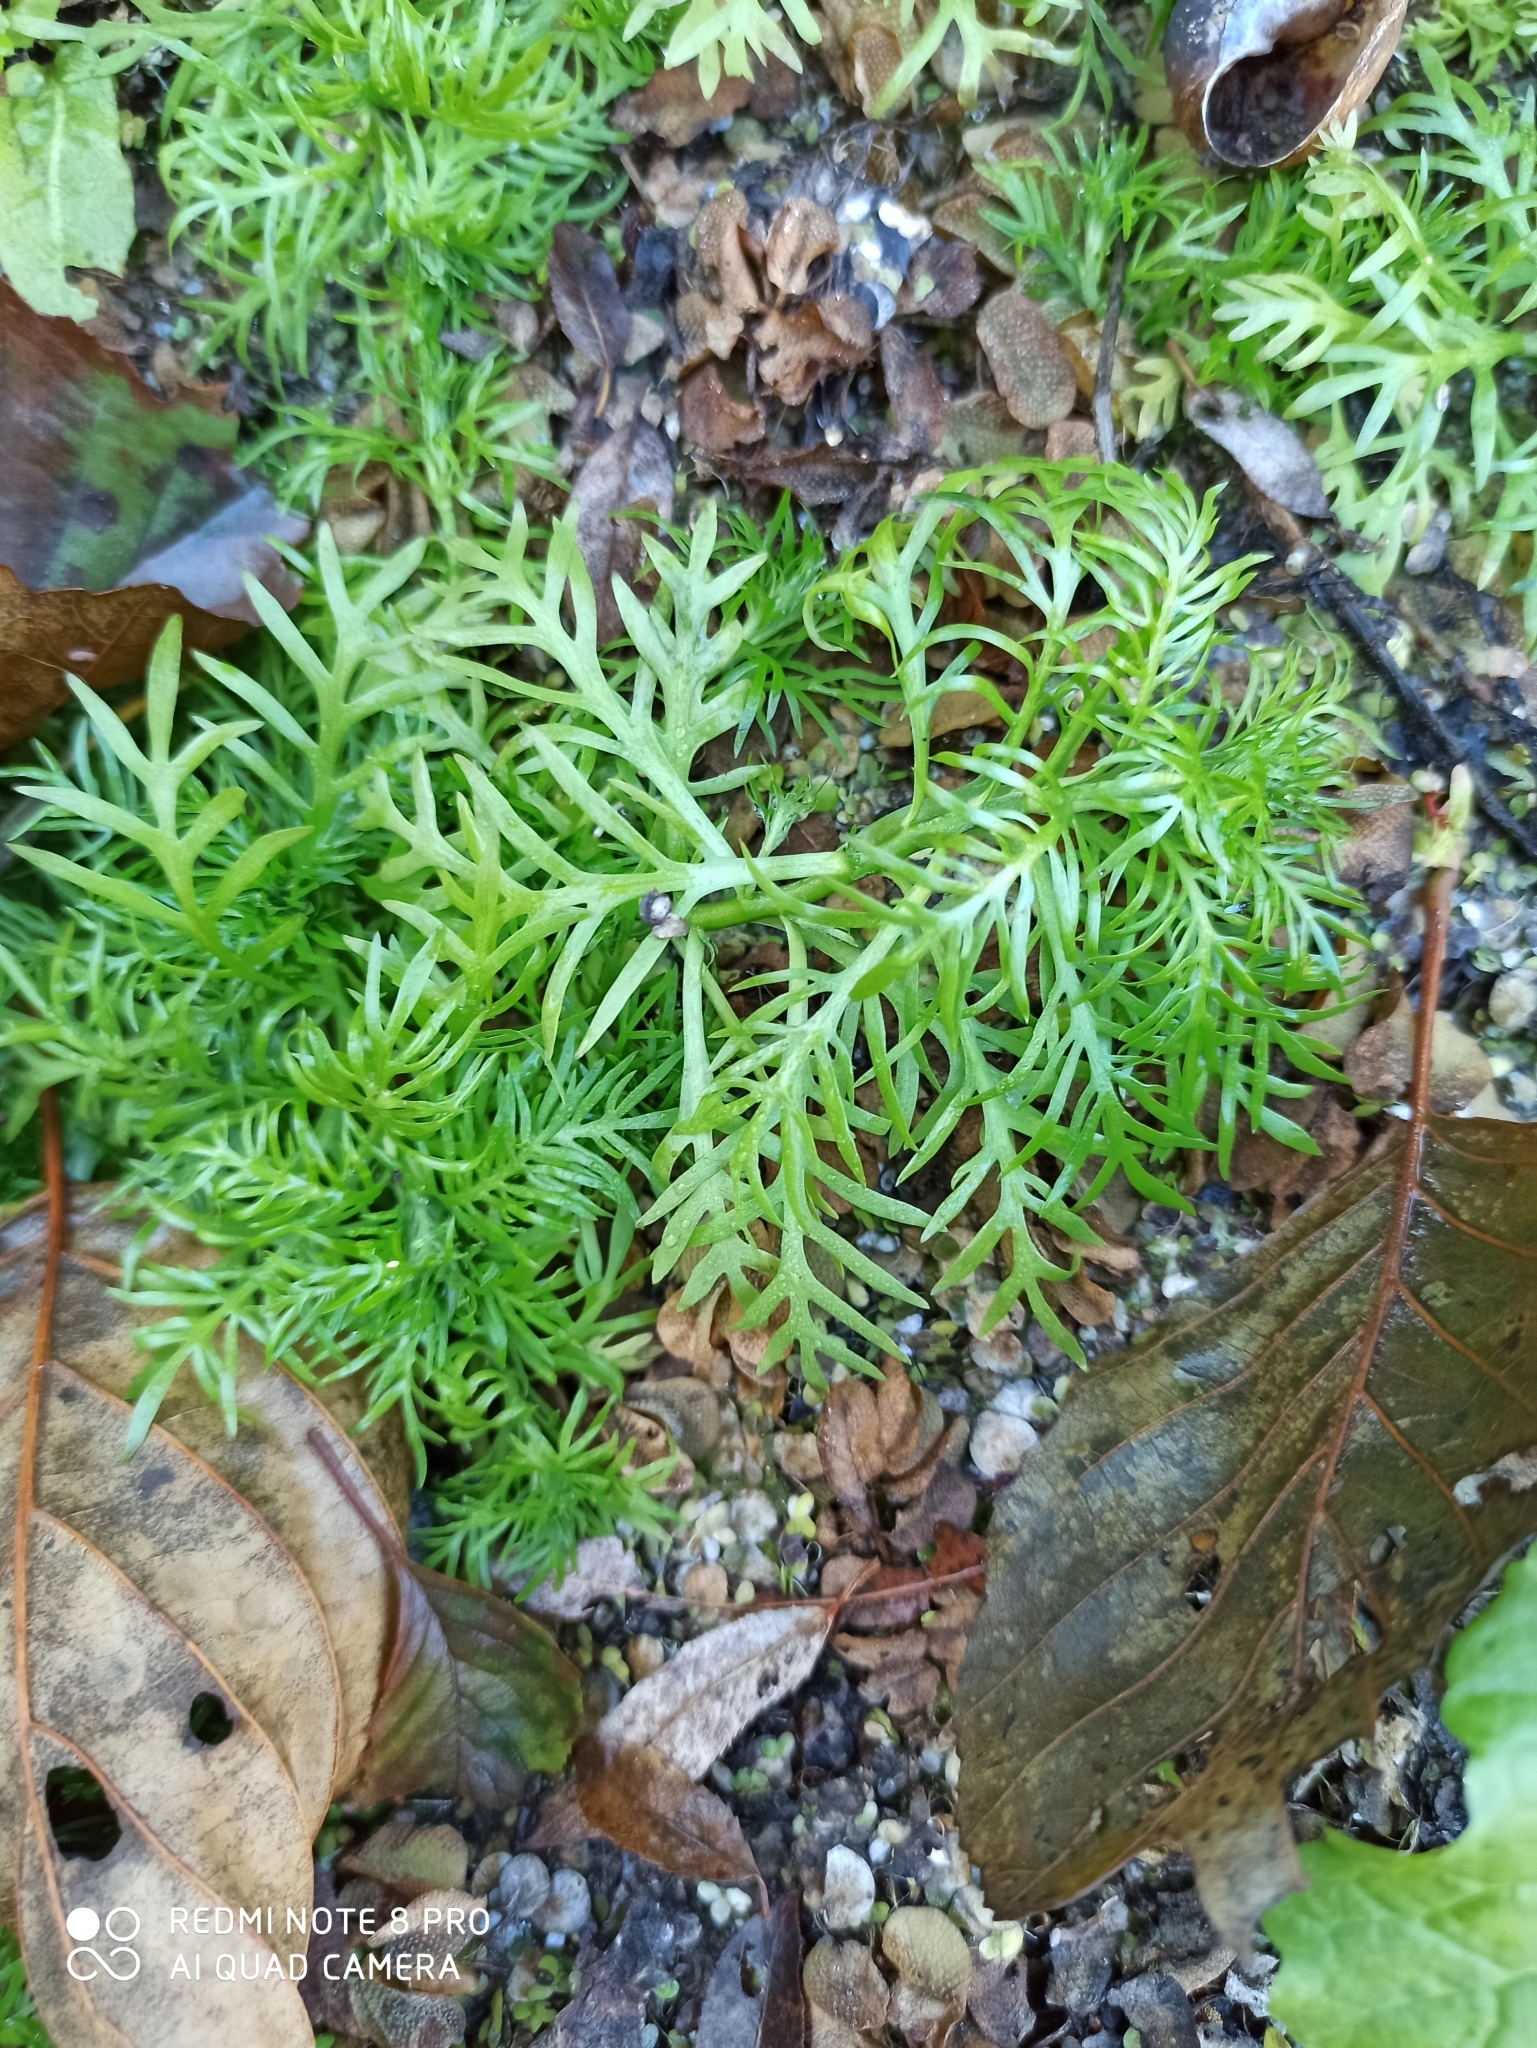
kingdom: Plantae
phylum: Tracheophyta
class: Magnoliopsida
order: Ericales
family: Primulaceae
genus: Hottonia
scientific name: Hottonia palustris
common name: Water-violet
